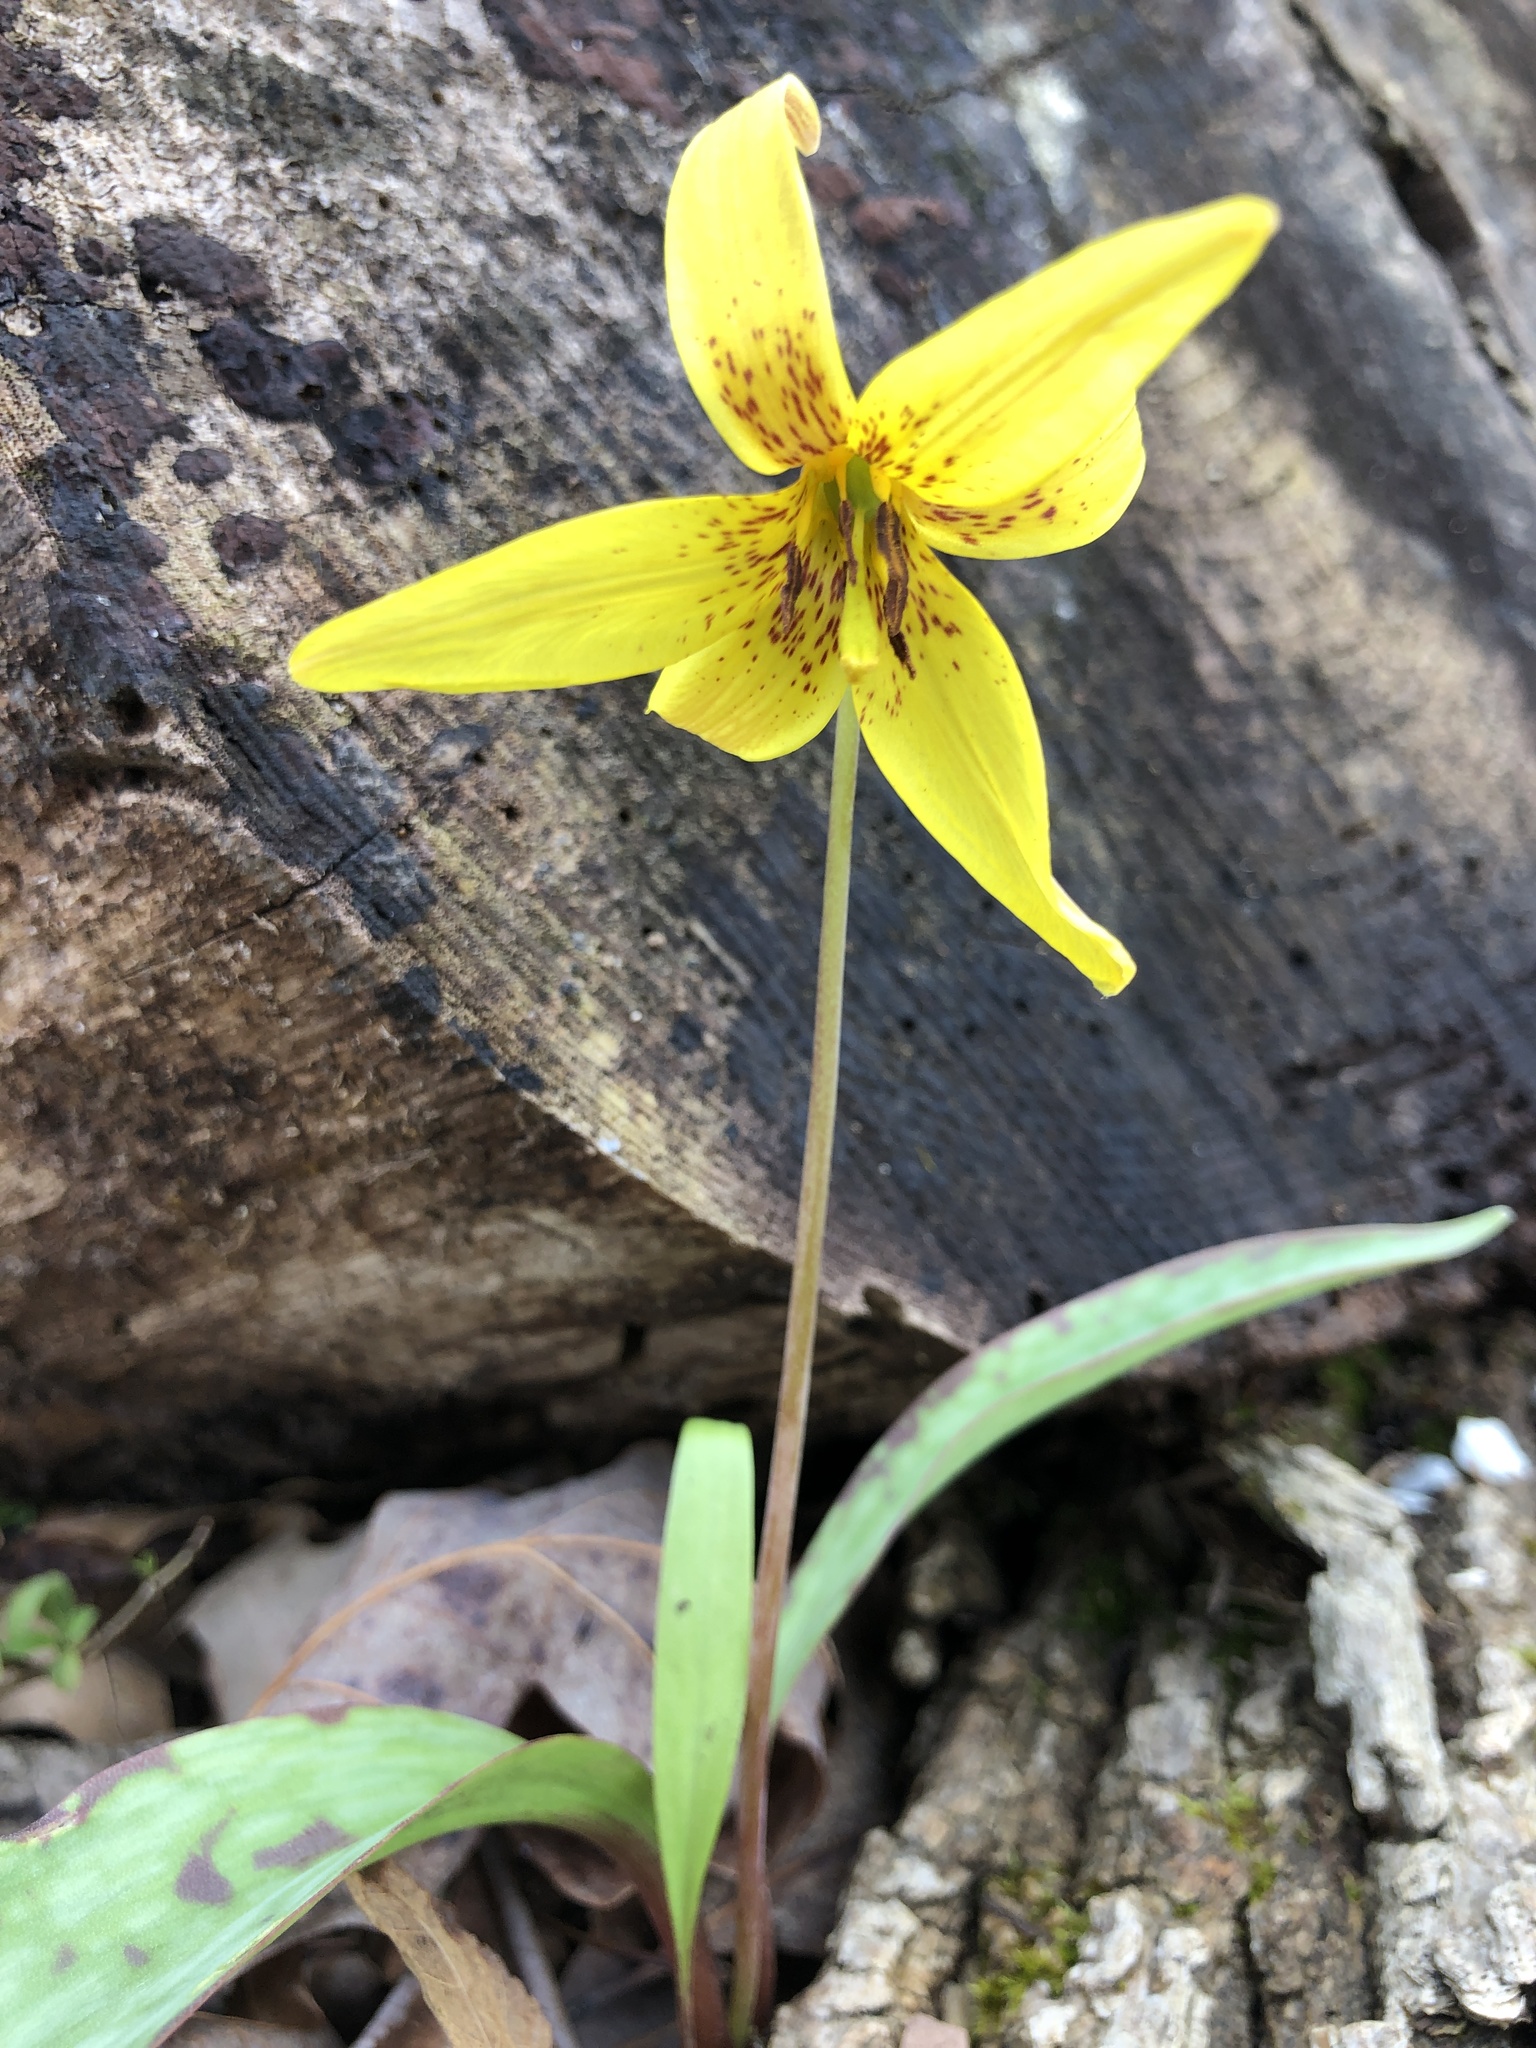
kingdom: Plantae
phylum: Tracheophyta
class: Liliopsida
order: Liliales
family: Liliaceae
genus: Erythronium
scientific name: Erythronium americanum
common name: Yellow adder's-tongue
